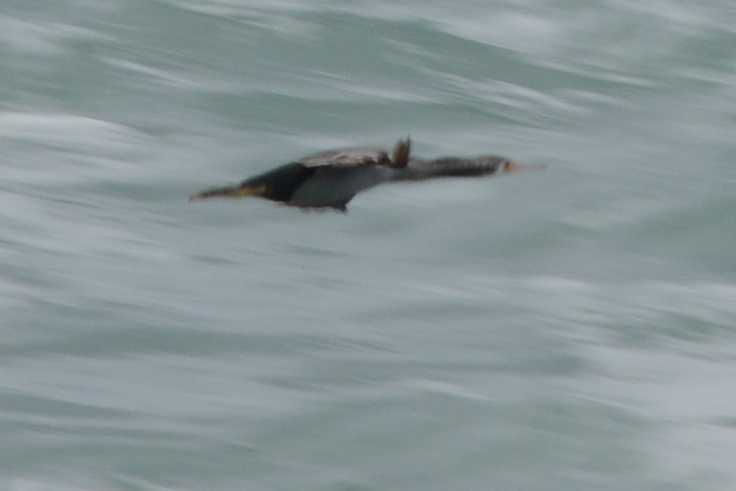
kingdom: Animalia
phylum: Chordata
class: Aves
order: Suliformes
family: Phalacrocoracidae
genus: Phalacrocorax
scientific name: Phalacrocorax punctatus
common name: Spotted shag
